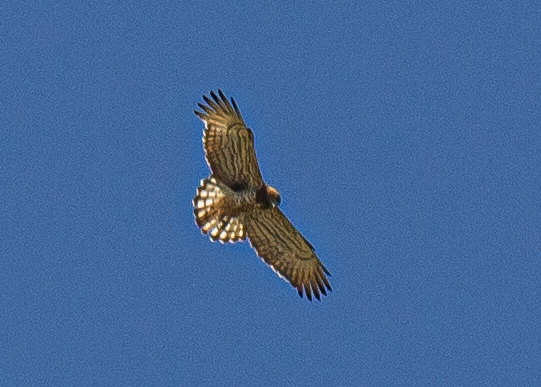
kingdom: Animalia
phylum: Chordata
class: Aves
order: Accipitriformes
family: Accipitridae
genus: Circaetus
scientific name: Circaetus gallicus
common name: Short-toed snake eagle
